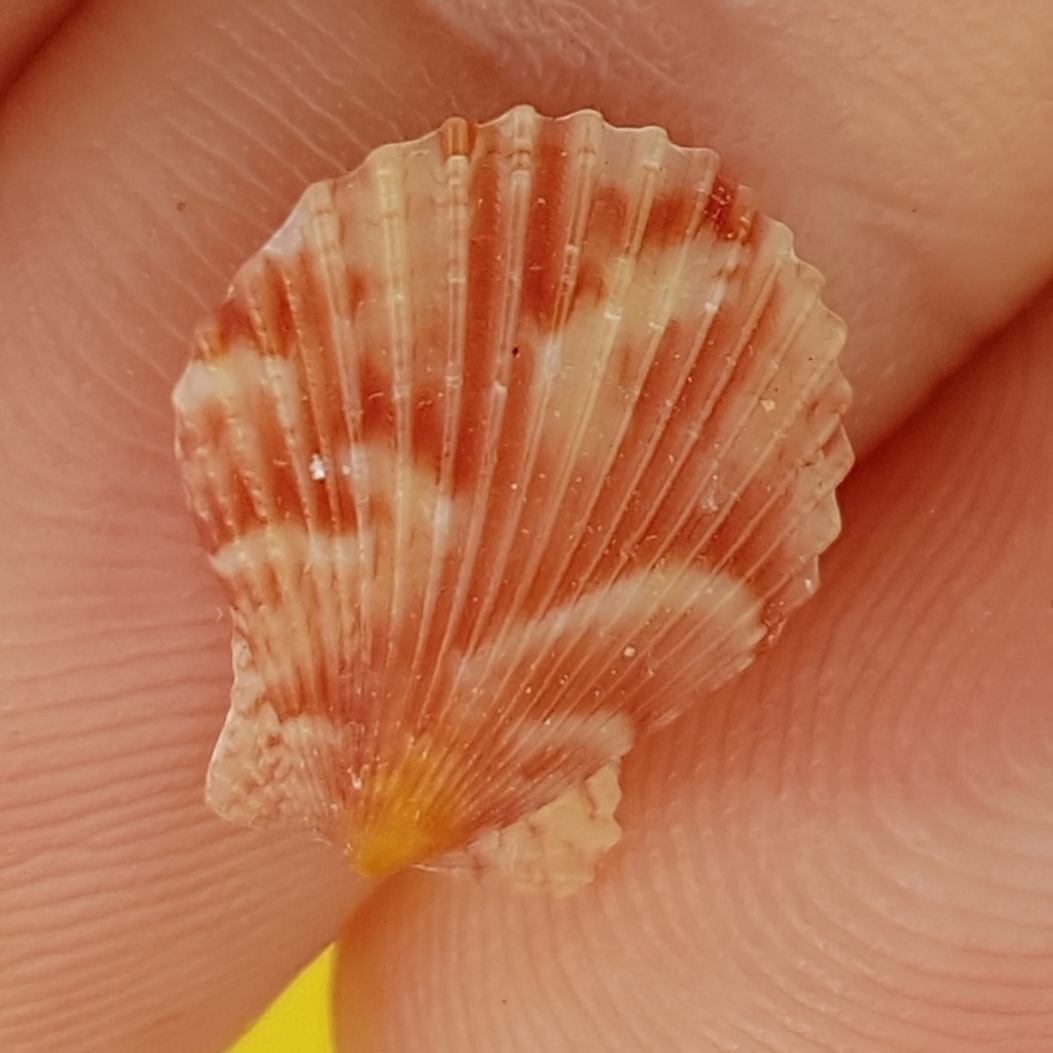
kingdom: Animalia
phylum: Mollusca
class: Bivalvia
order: Pectinida
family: Pectinidae
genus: Aequipecten
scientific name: Aequipecten opercularis
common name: Queen scallop
